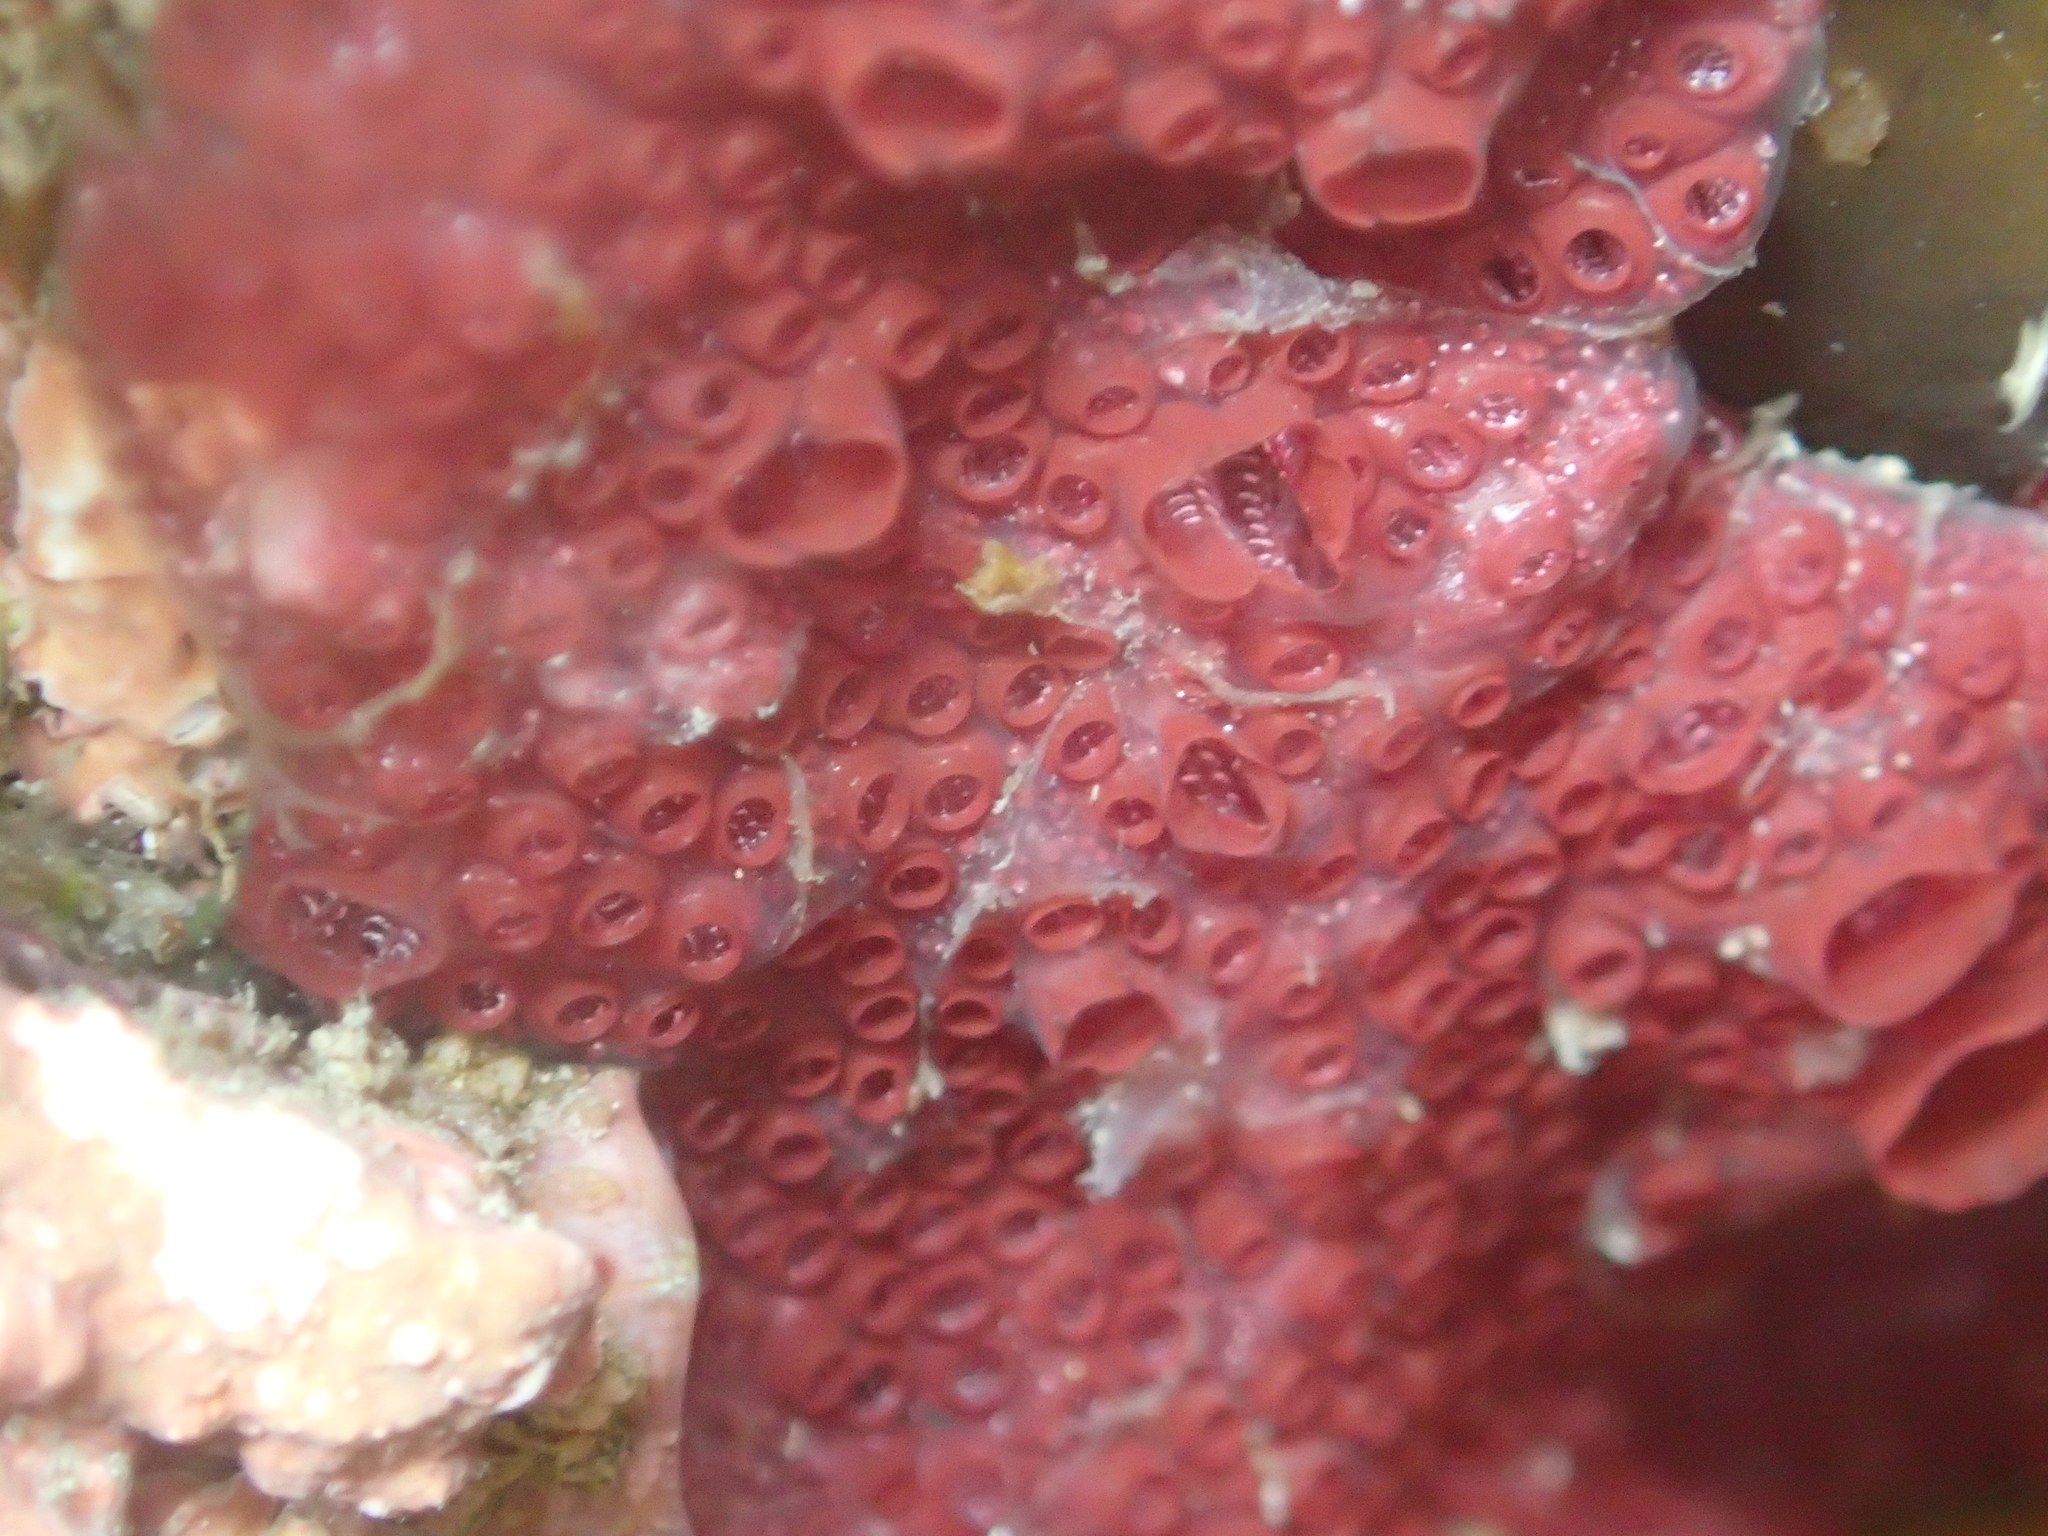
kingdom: Animalia
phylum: Chordata
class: Ascidiacea
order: Stolidobranchia
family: Styelidae
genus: Botrylloides
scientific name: Botrylloides violaceus
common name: Colonial sea squirt
